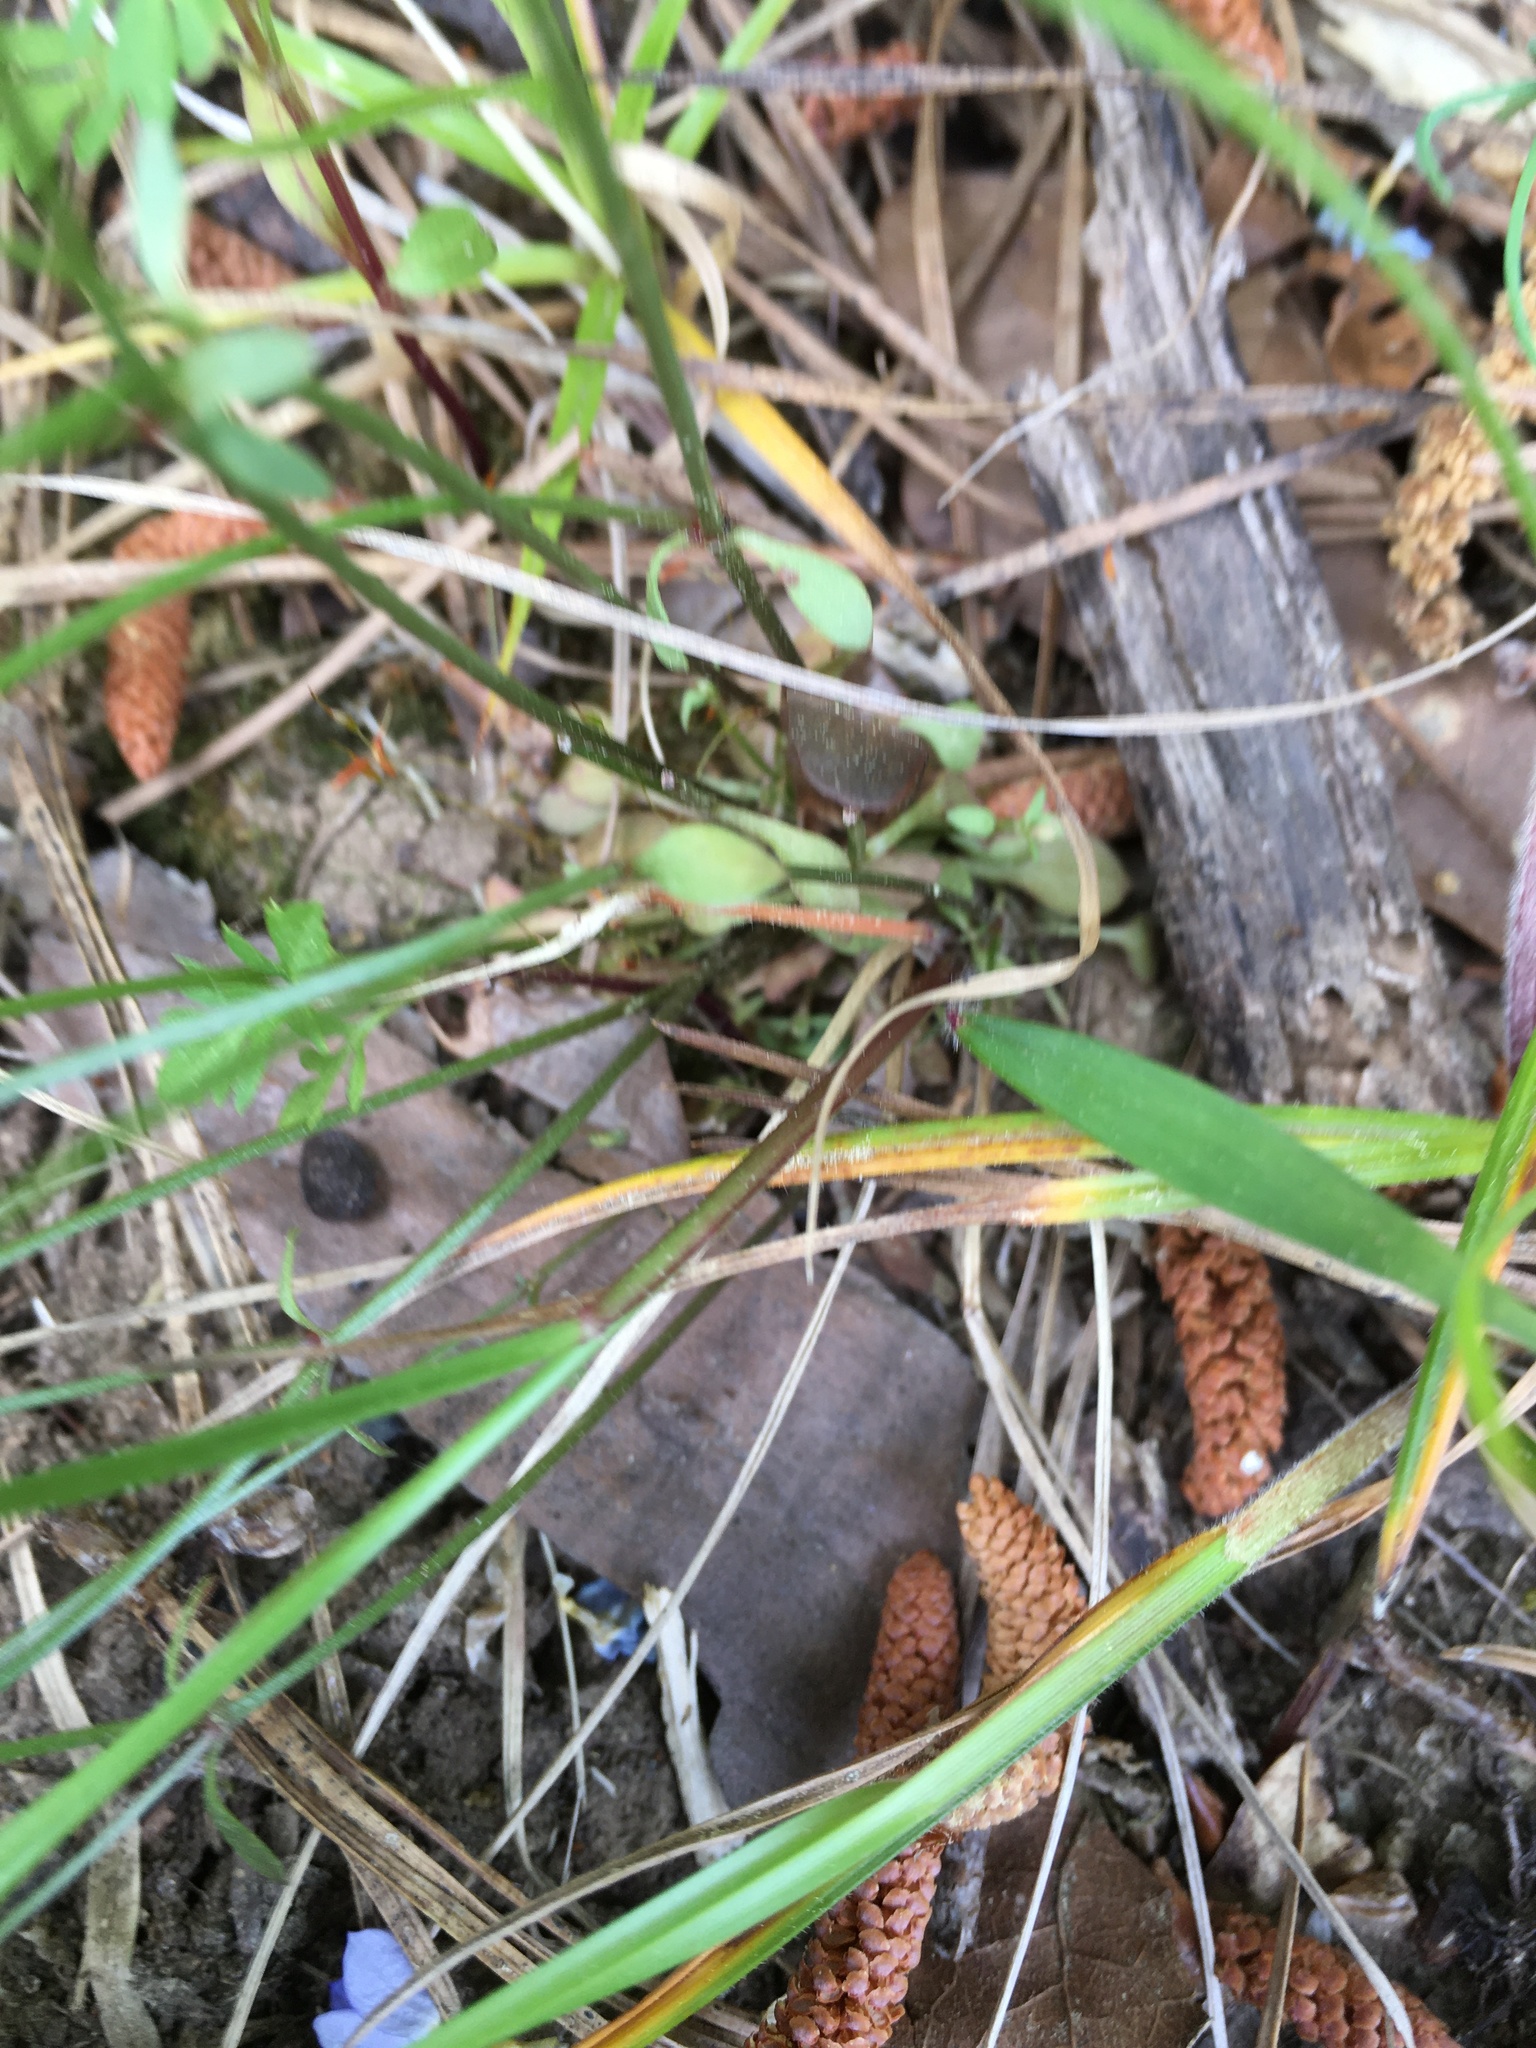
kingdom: Plantae
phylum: Tracheophyta
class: Magnoliopsida
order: Gentianales
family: Rubiaceae
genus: Houstonia
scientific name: Houstonia caerulea
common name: Bluets
